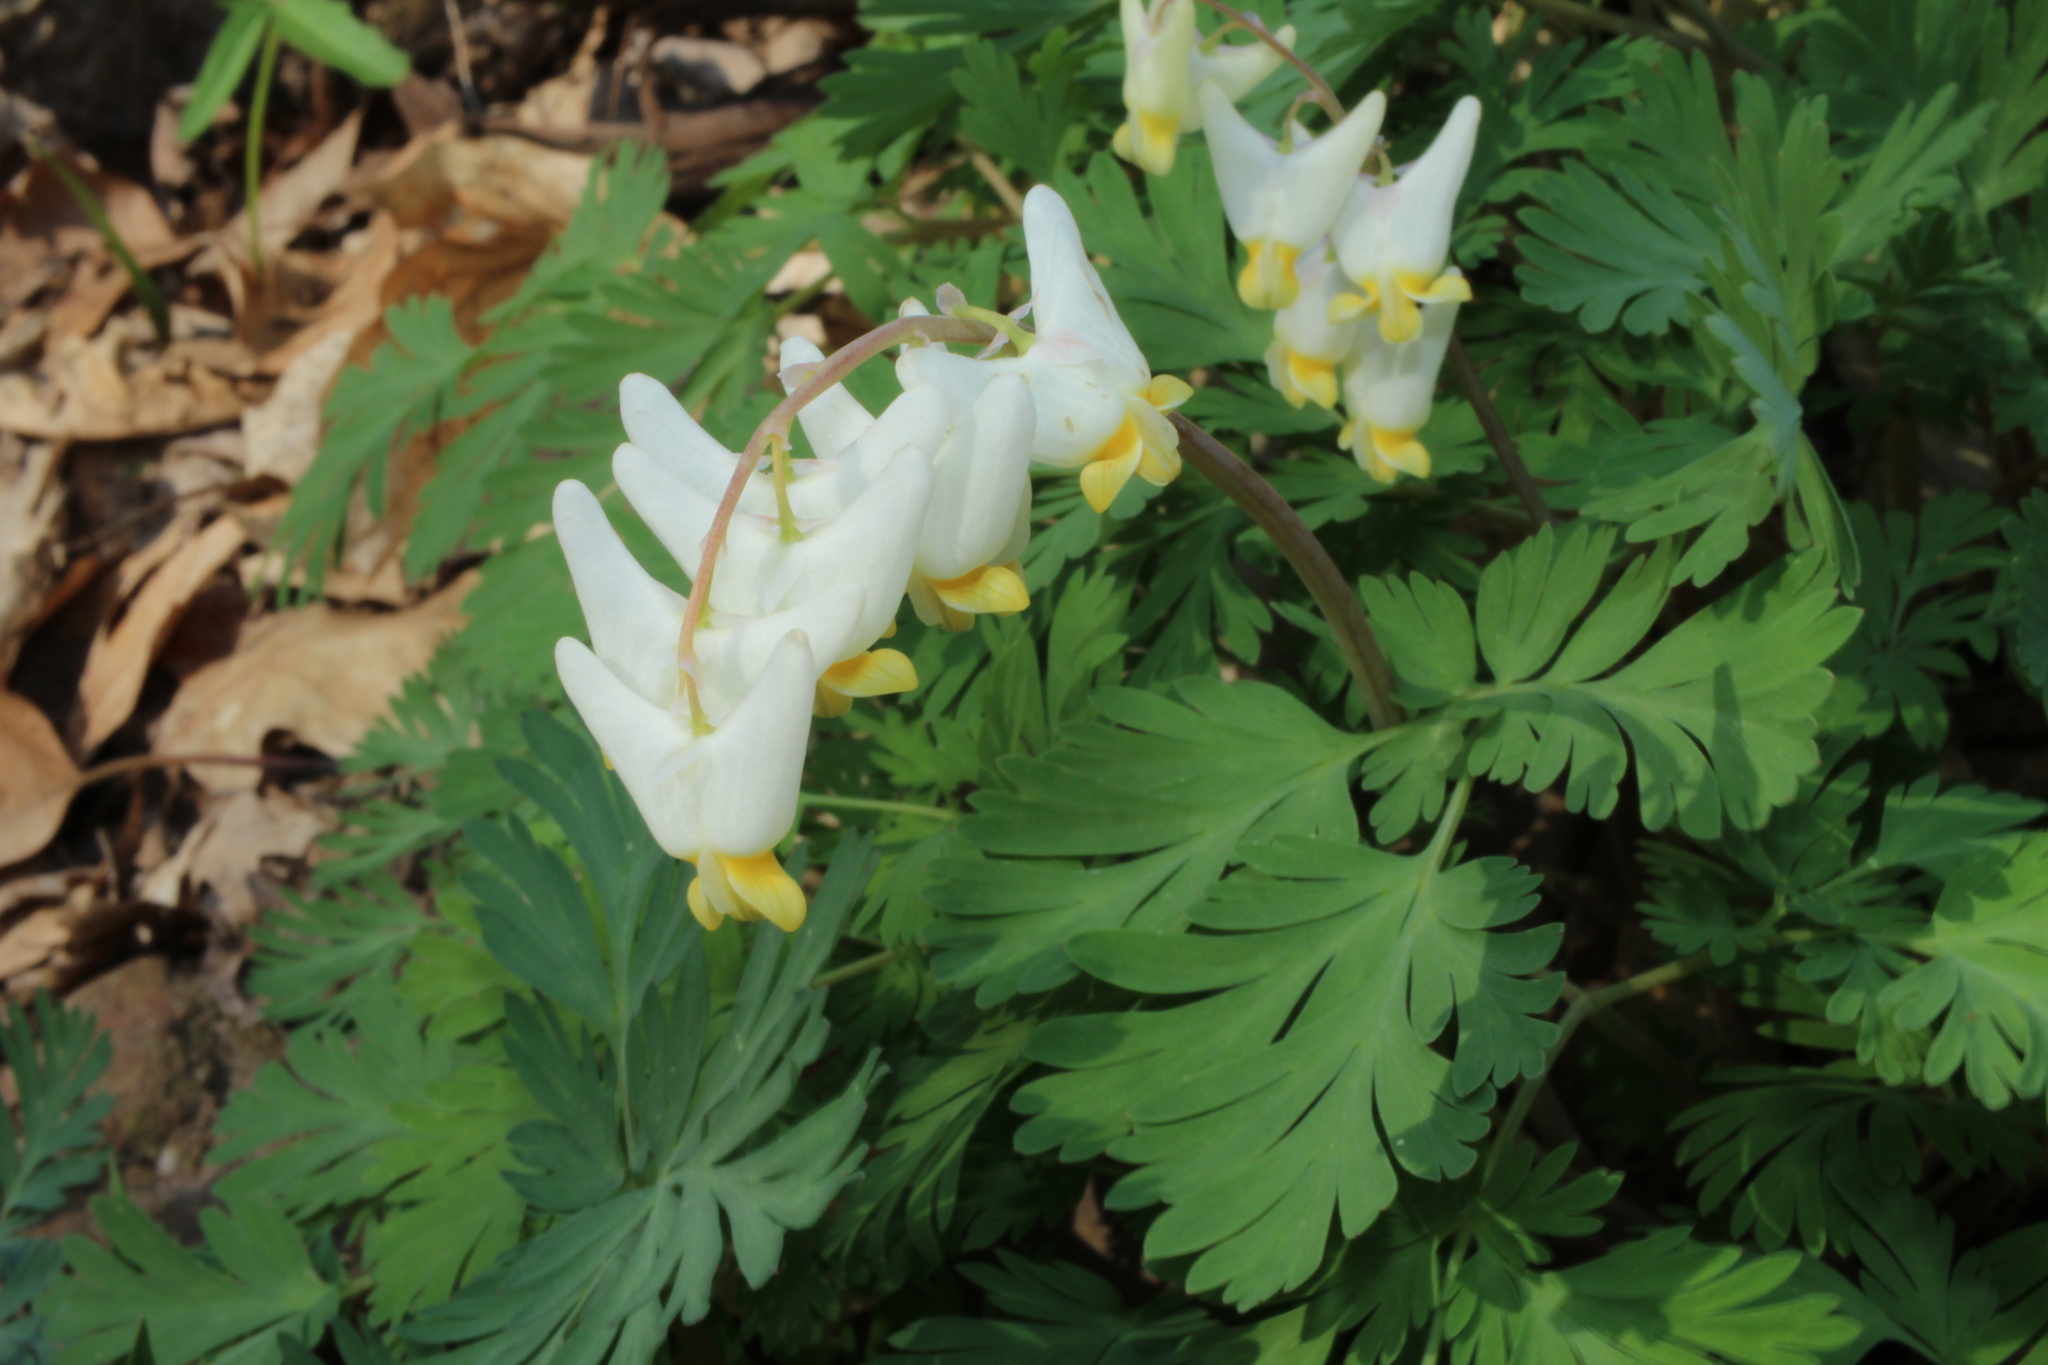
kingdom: Plantae
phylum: Tracheophyta
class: Magnoliopsida
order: Ranunculales
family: Papaveraceae
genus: Dicentra
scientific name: Dicentra cucullaria
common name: Dutchman's breeches
